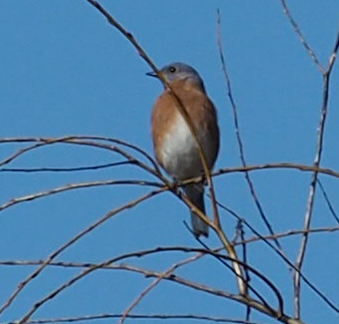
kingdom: Animalia
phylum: Chordata
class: Aves
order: Passeriformes
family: Turdidae
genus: Sialia
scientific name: Sialia sialis
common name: Eastern bluebird
